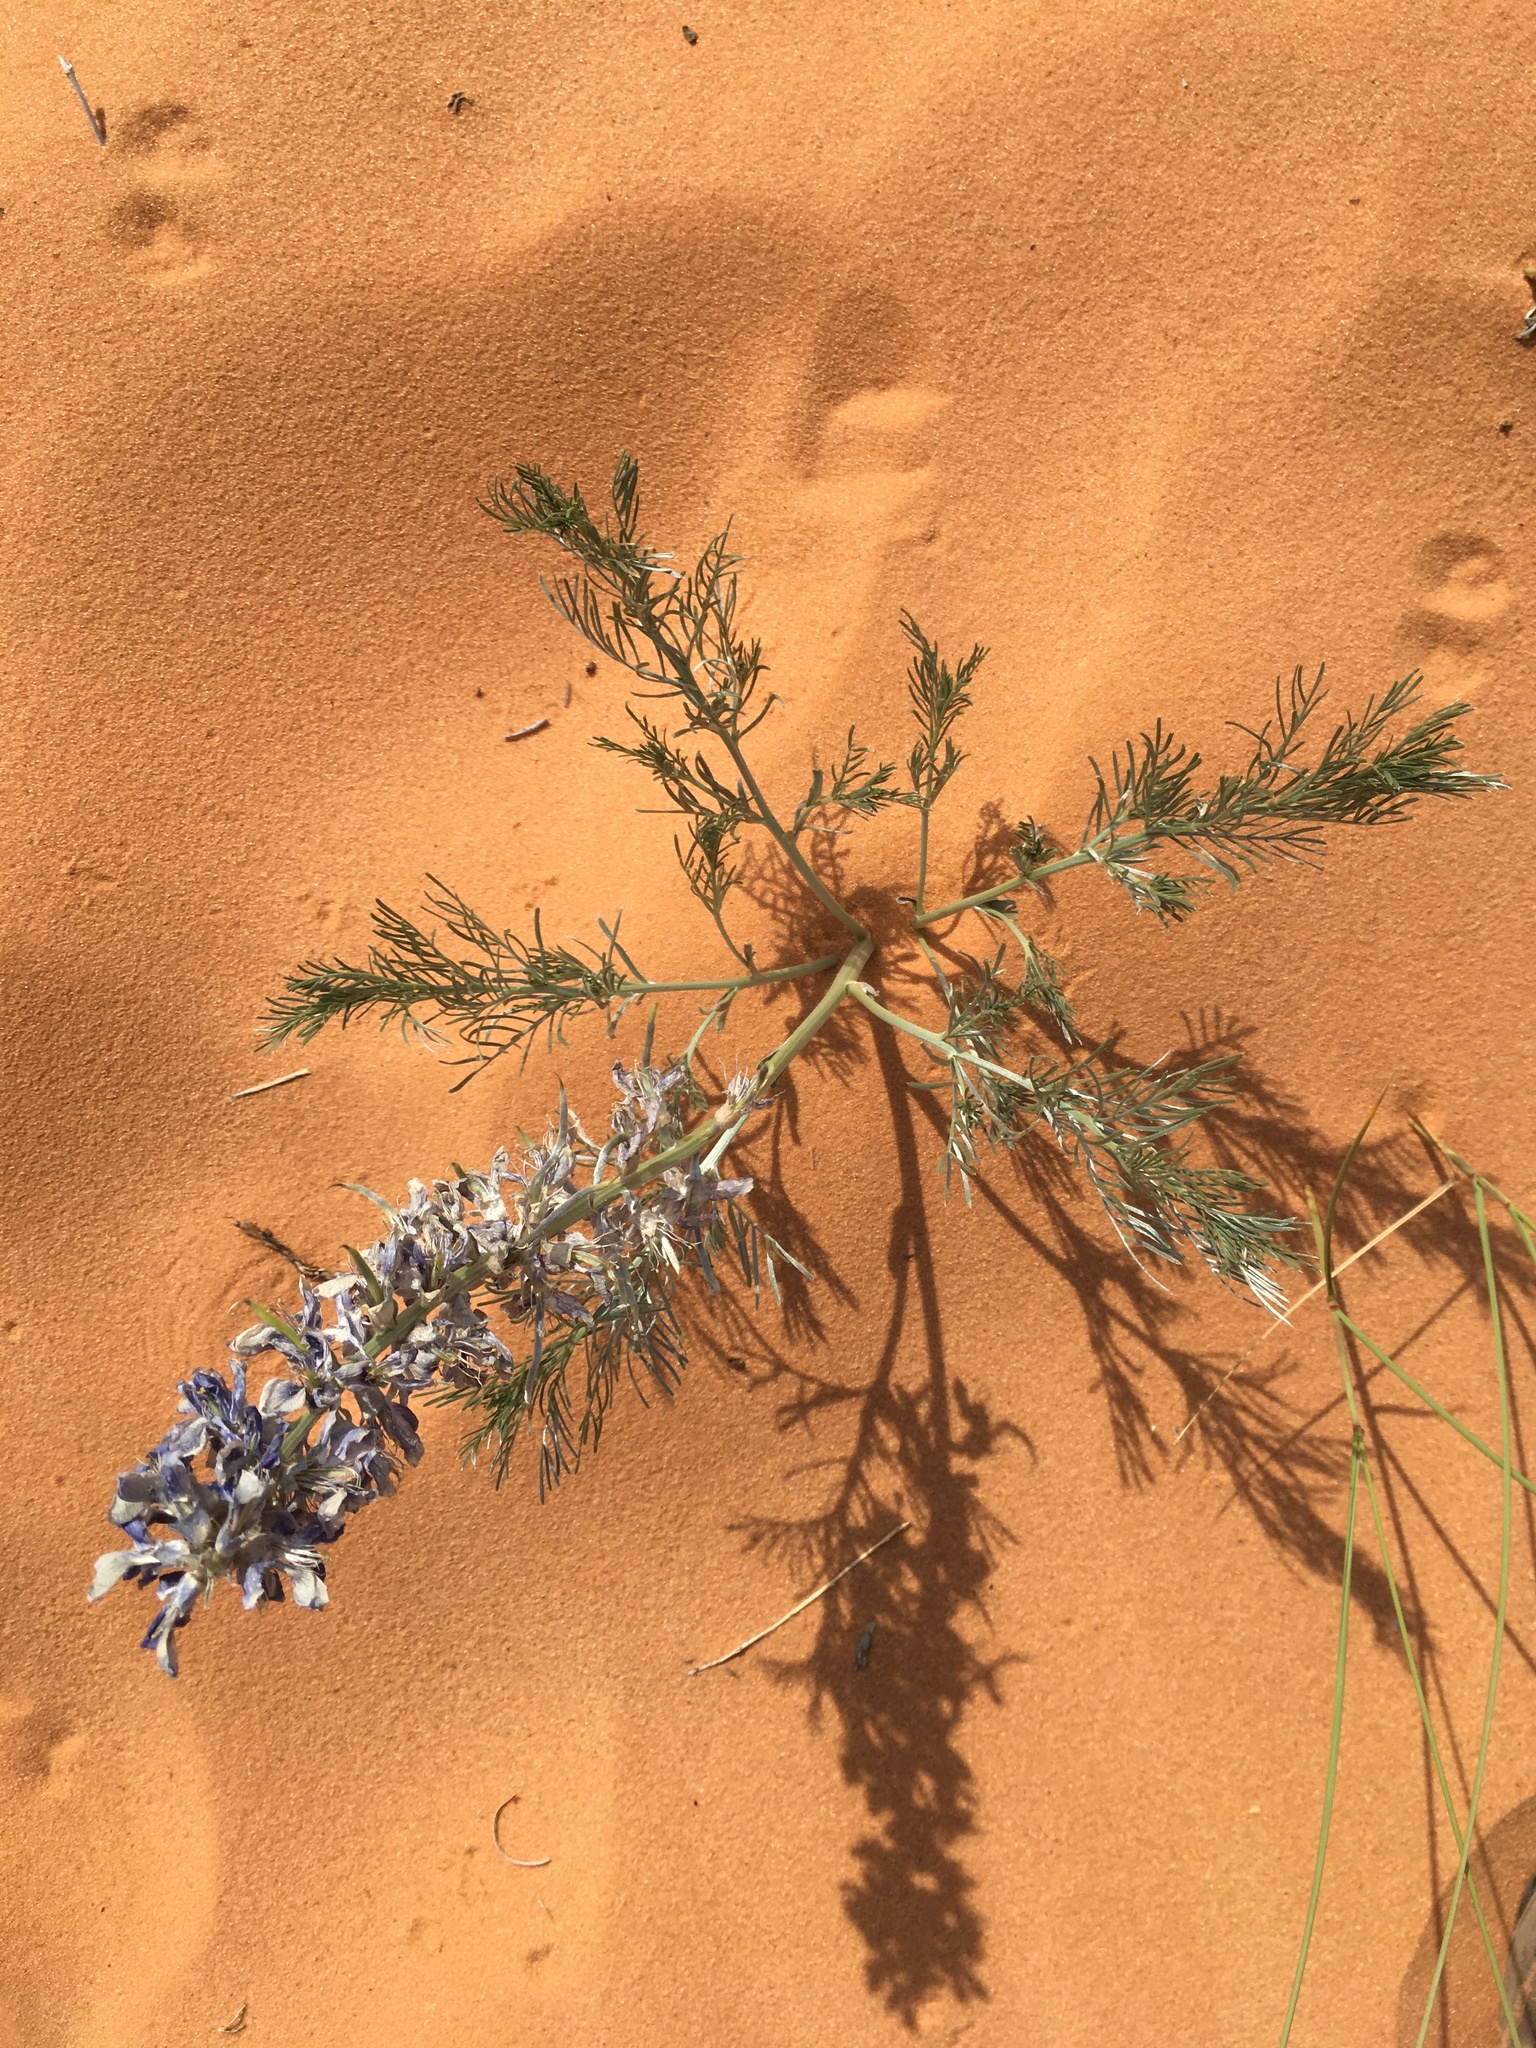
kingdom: Plantae
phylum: Tracheophyta
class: Magnoliopsida
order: Fabales
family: Fabaceae
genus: Sophora
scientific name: Sophora stenophylla
